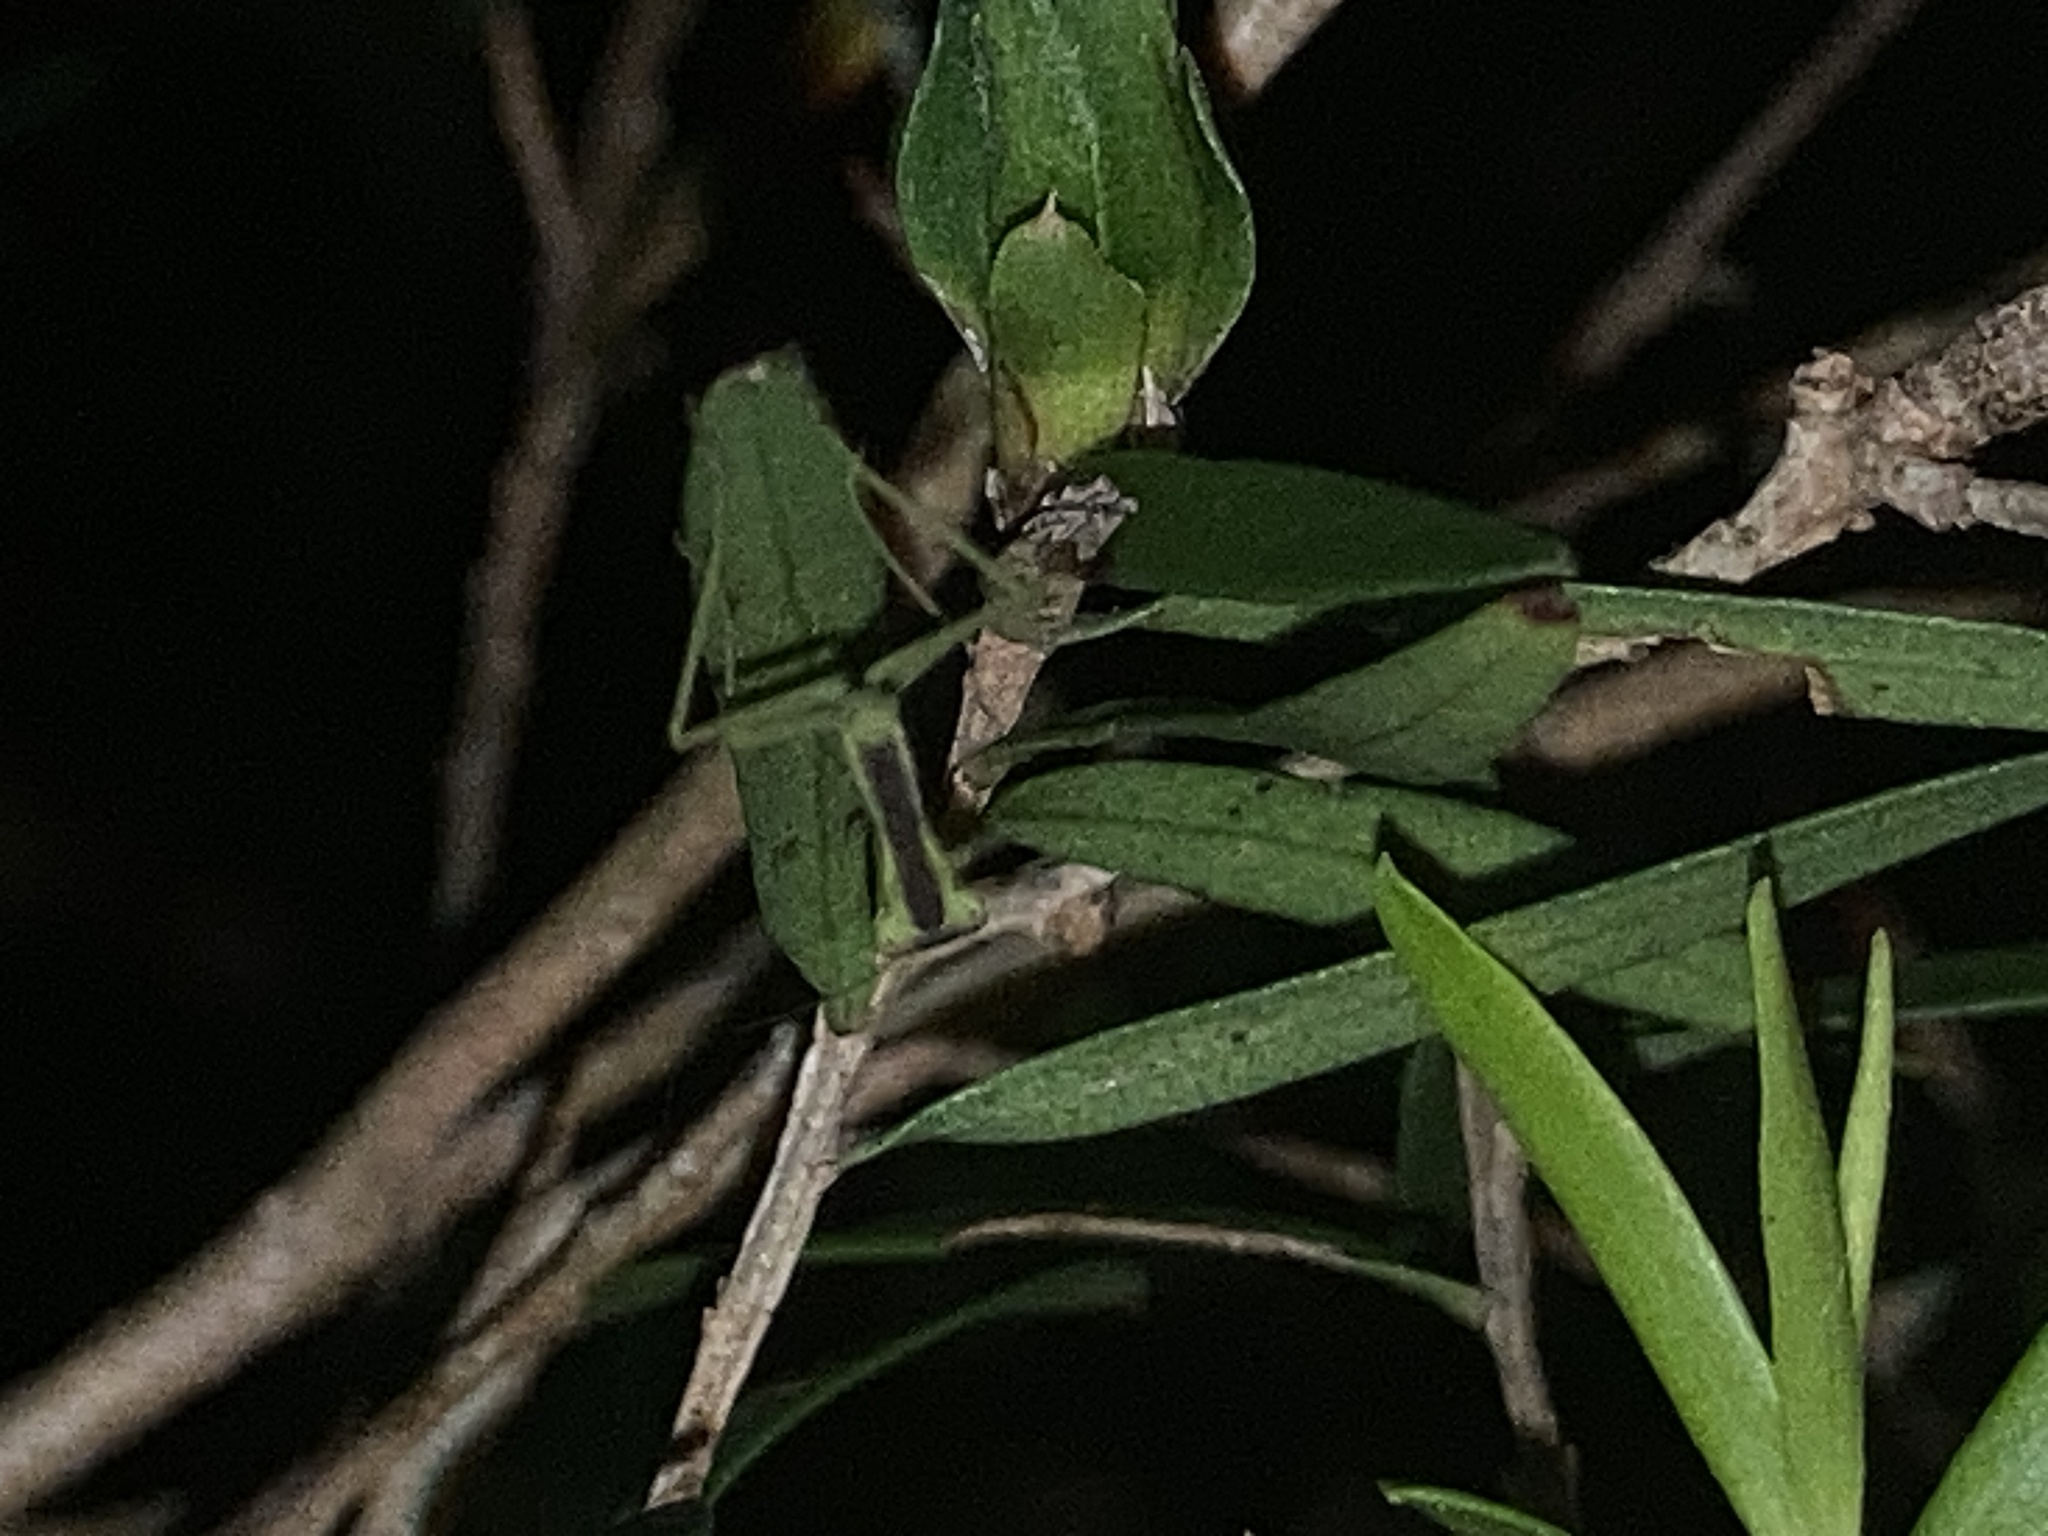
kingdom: Animalia
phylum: Arthropoda
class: Insecta
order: Mantodea
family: Mantidae
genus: Orthodera
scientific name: Orthodera ministralis
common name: Mantis
